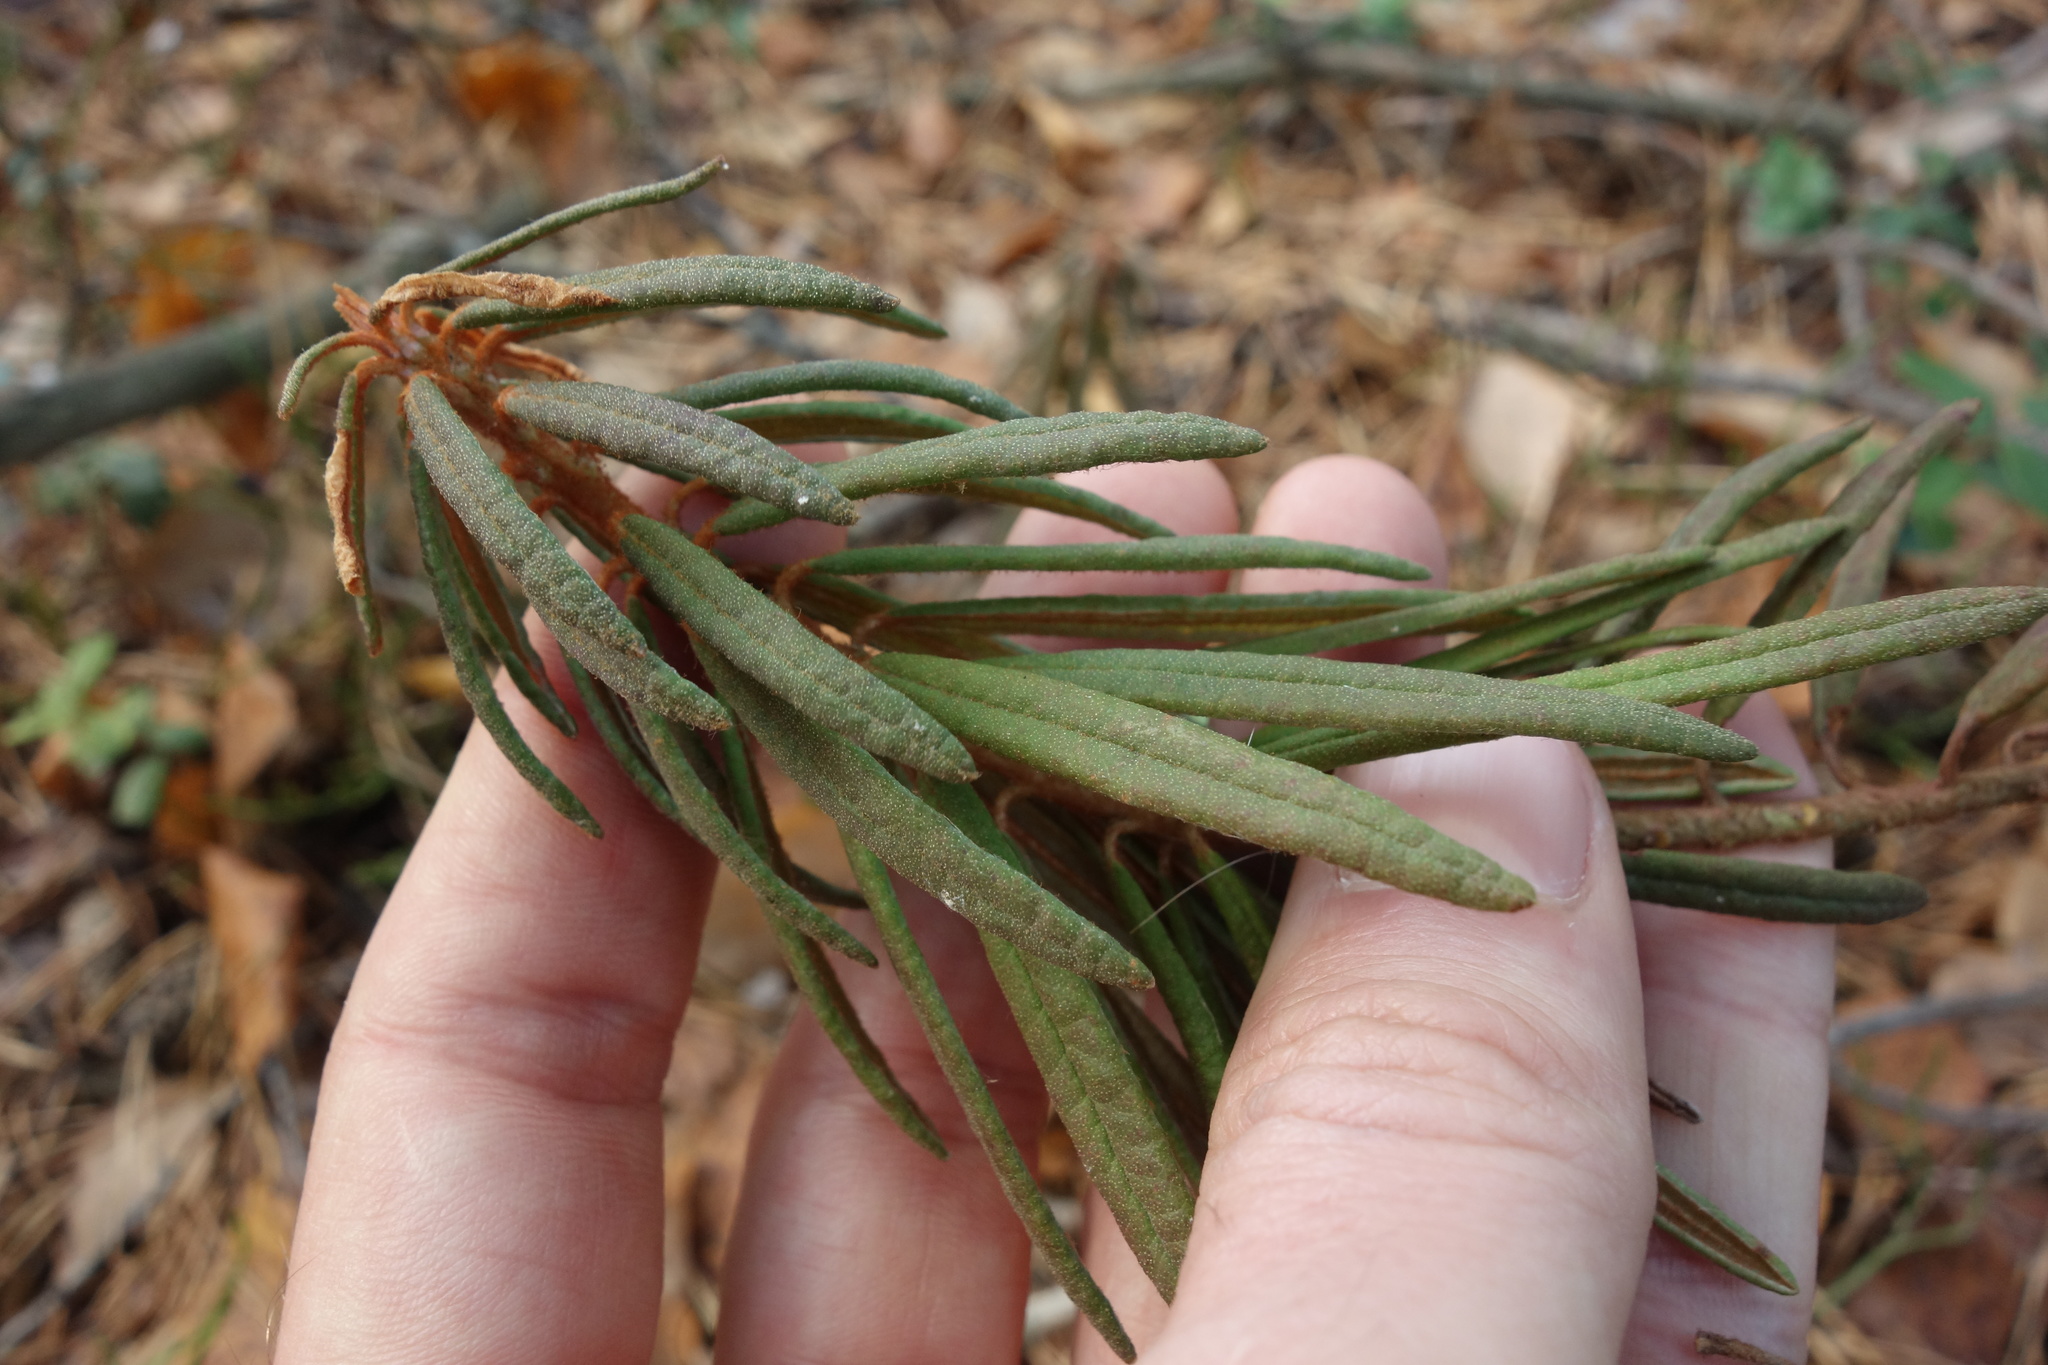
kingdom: Plantae
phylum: Tracheophyta
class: Magnoliopsida
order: Ericales
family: Ericaceae
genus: Rhododendron
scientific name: Rhododendron tomentosum
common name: Marsh labrador tea
